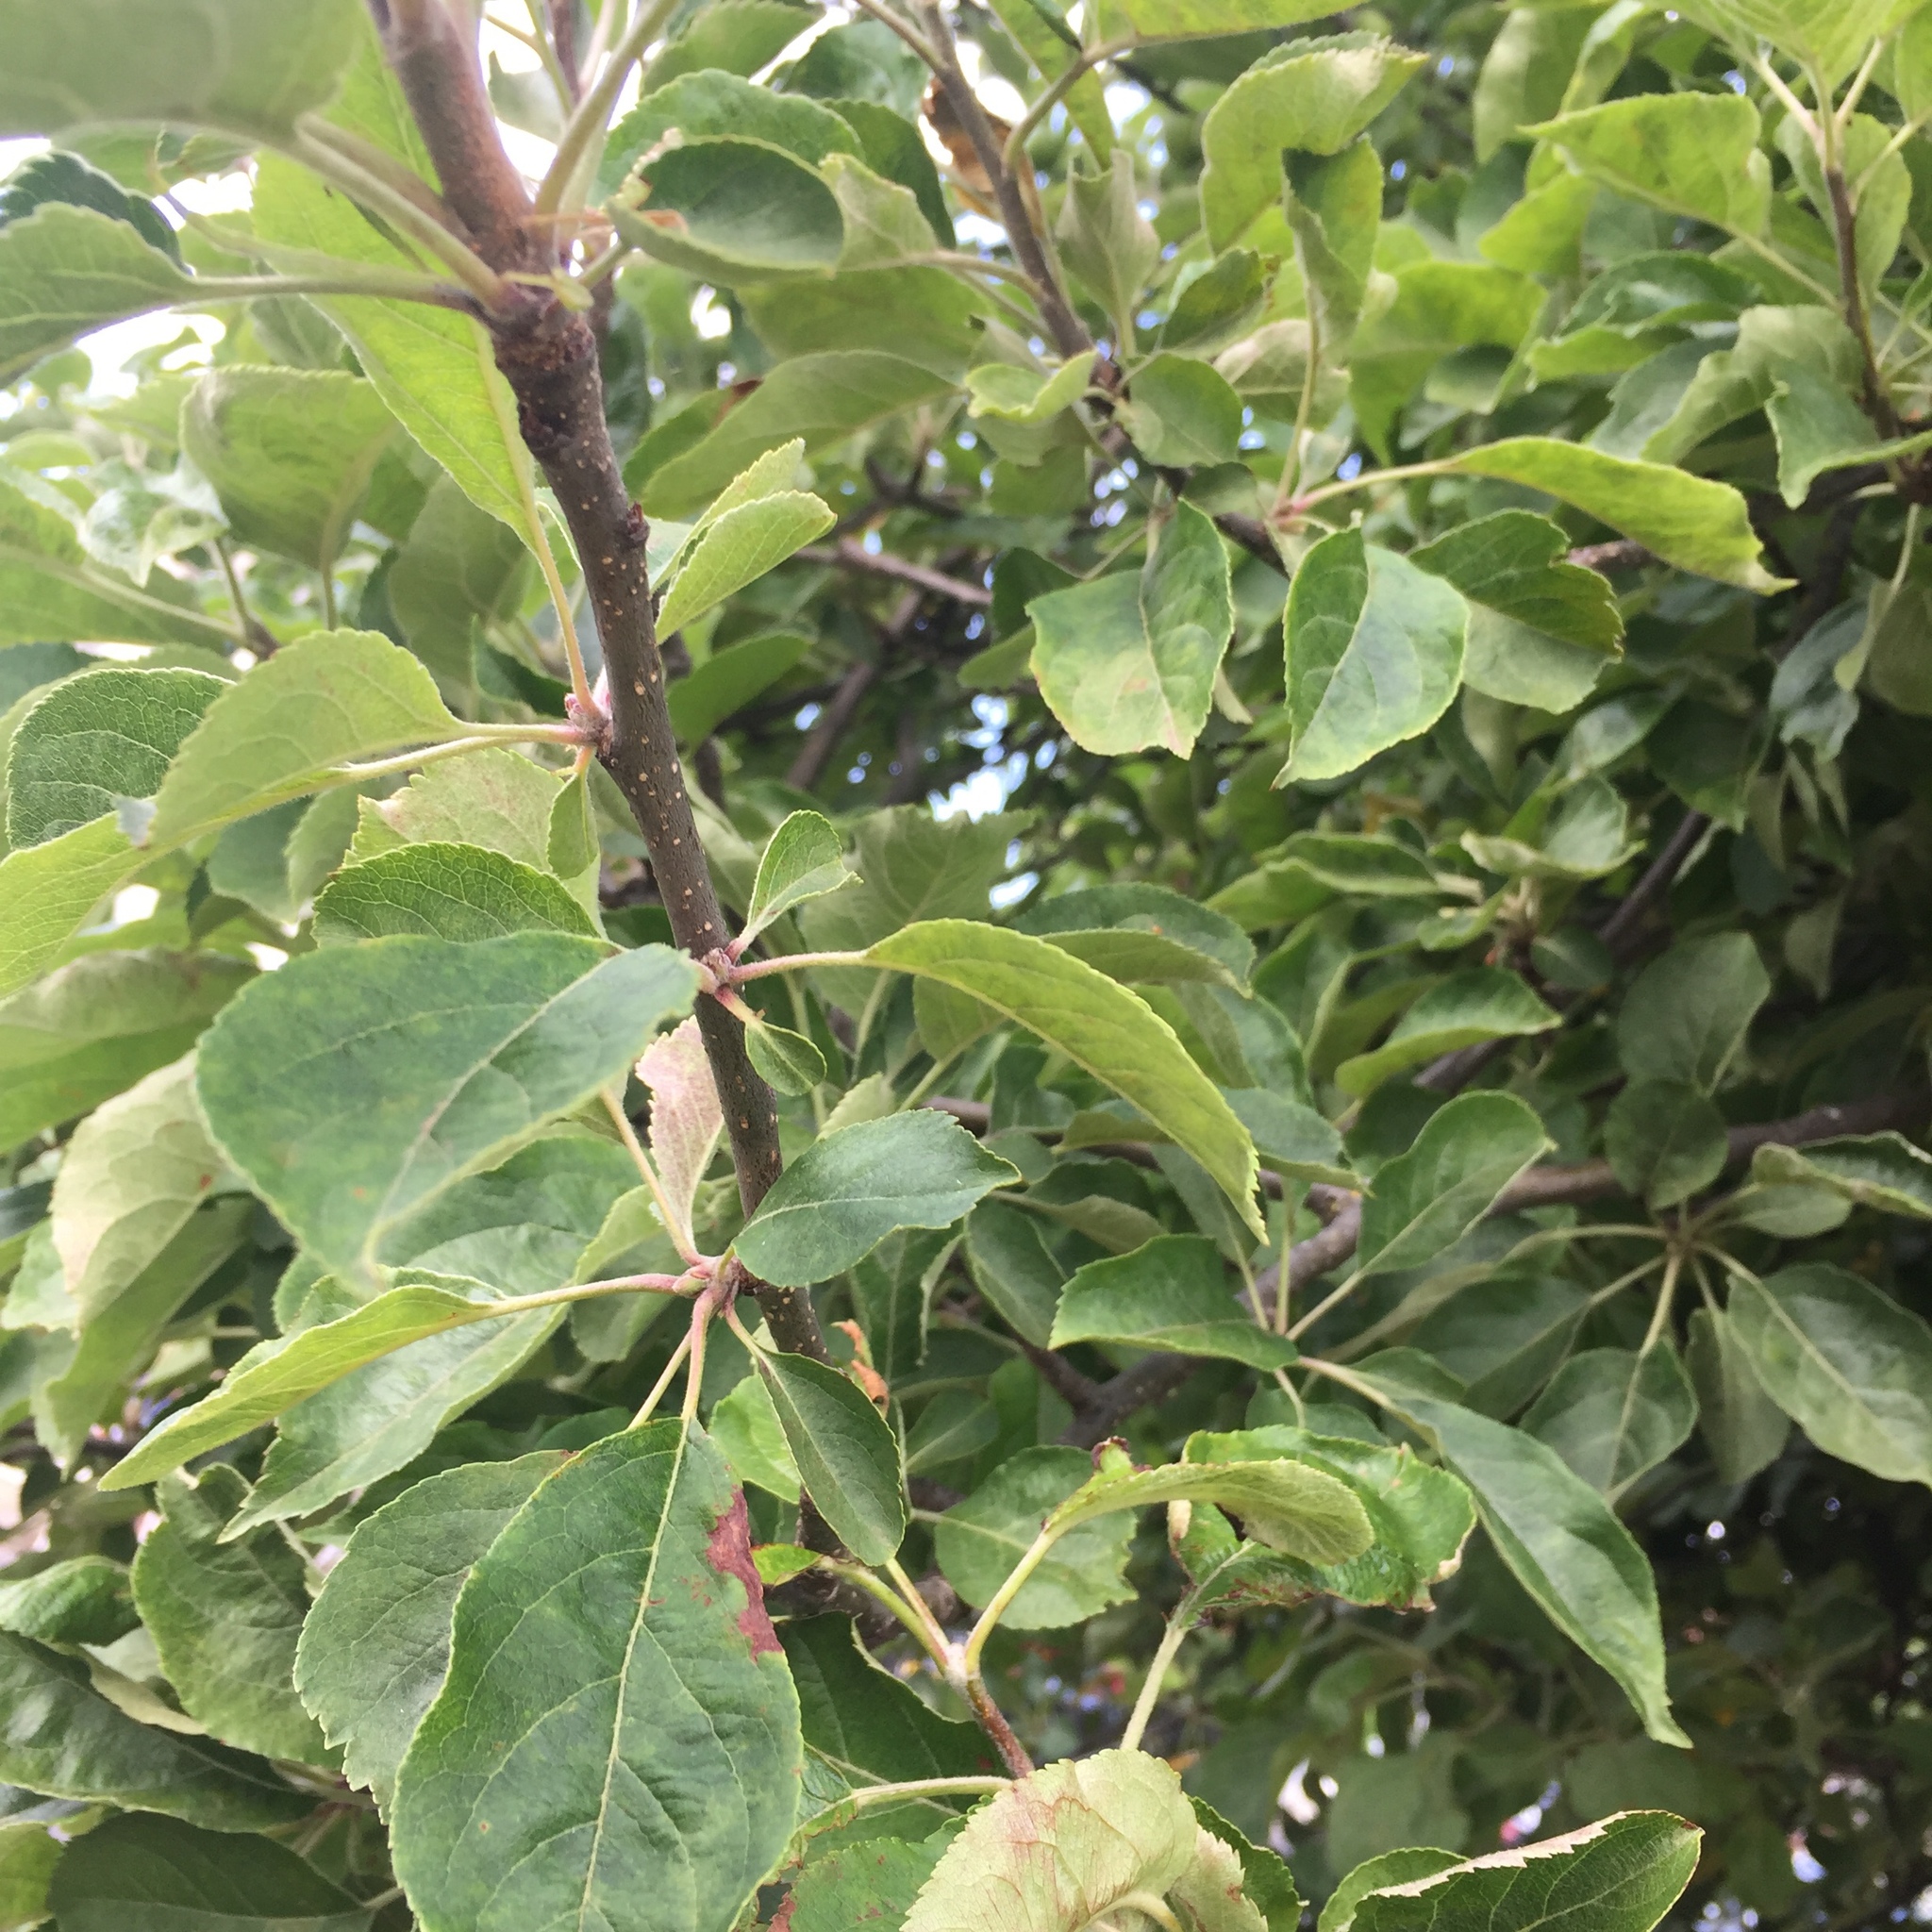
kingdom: Plantae
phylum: Tracheophyta
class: Magnoliopsida
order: Rosales
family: Rosaceae
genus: Malus
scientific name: Malus domestica
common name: Apple
